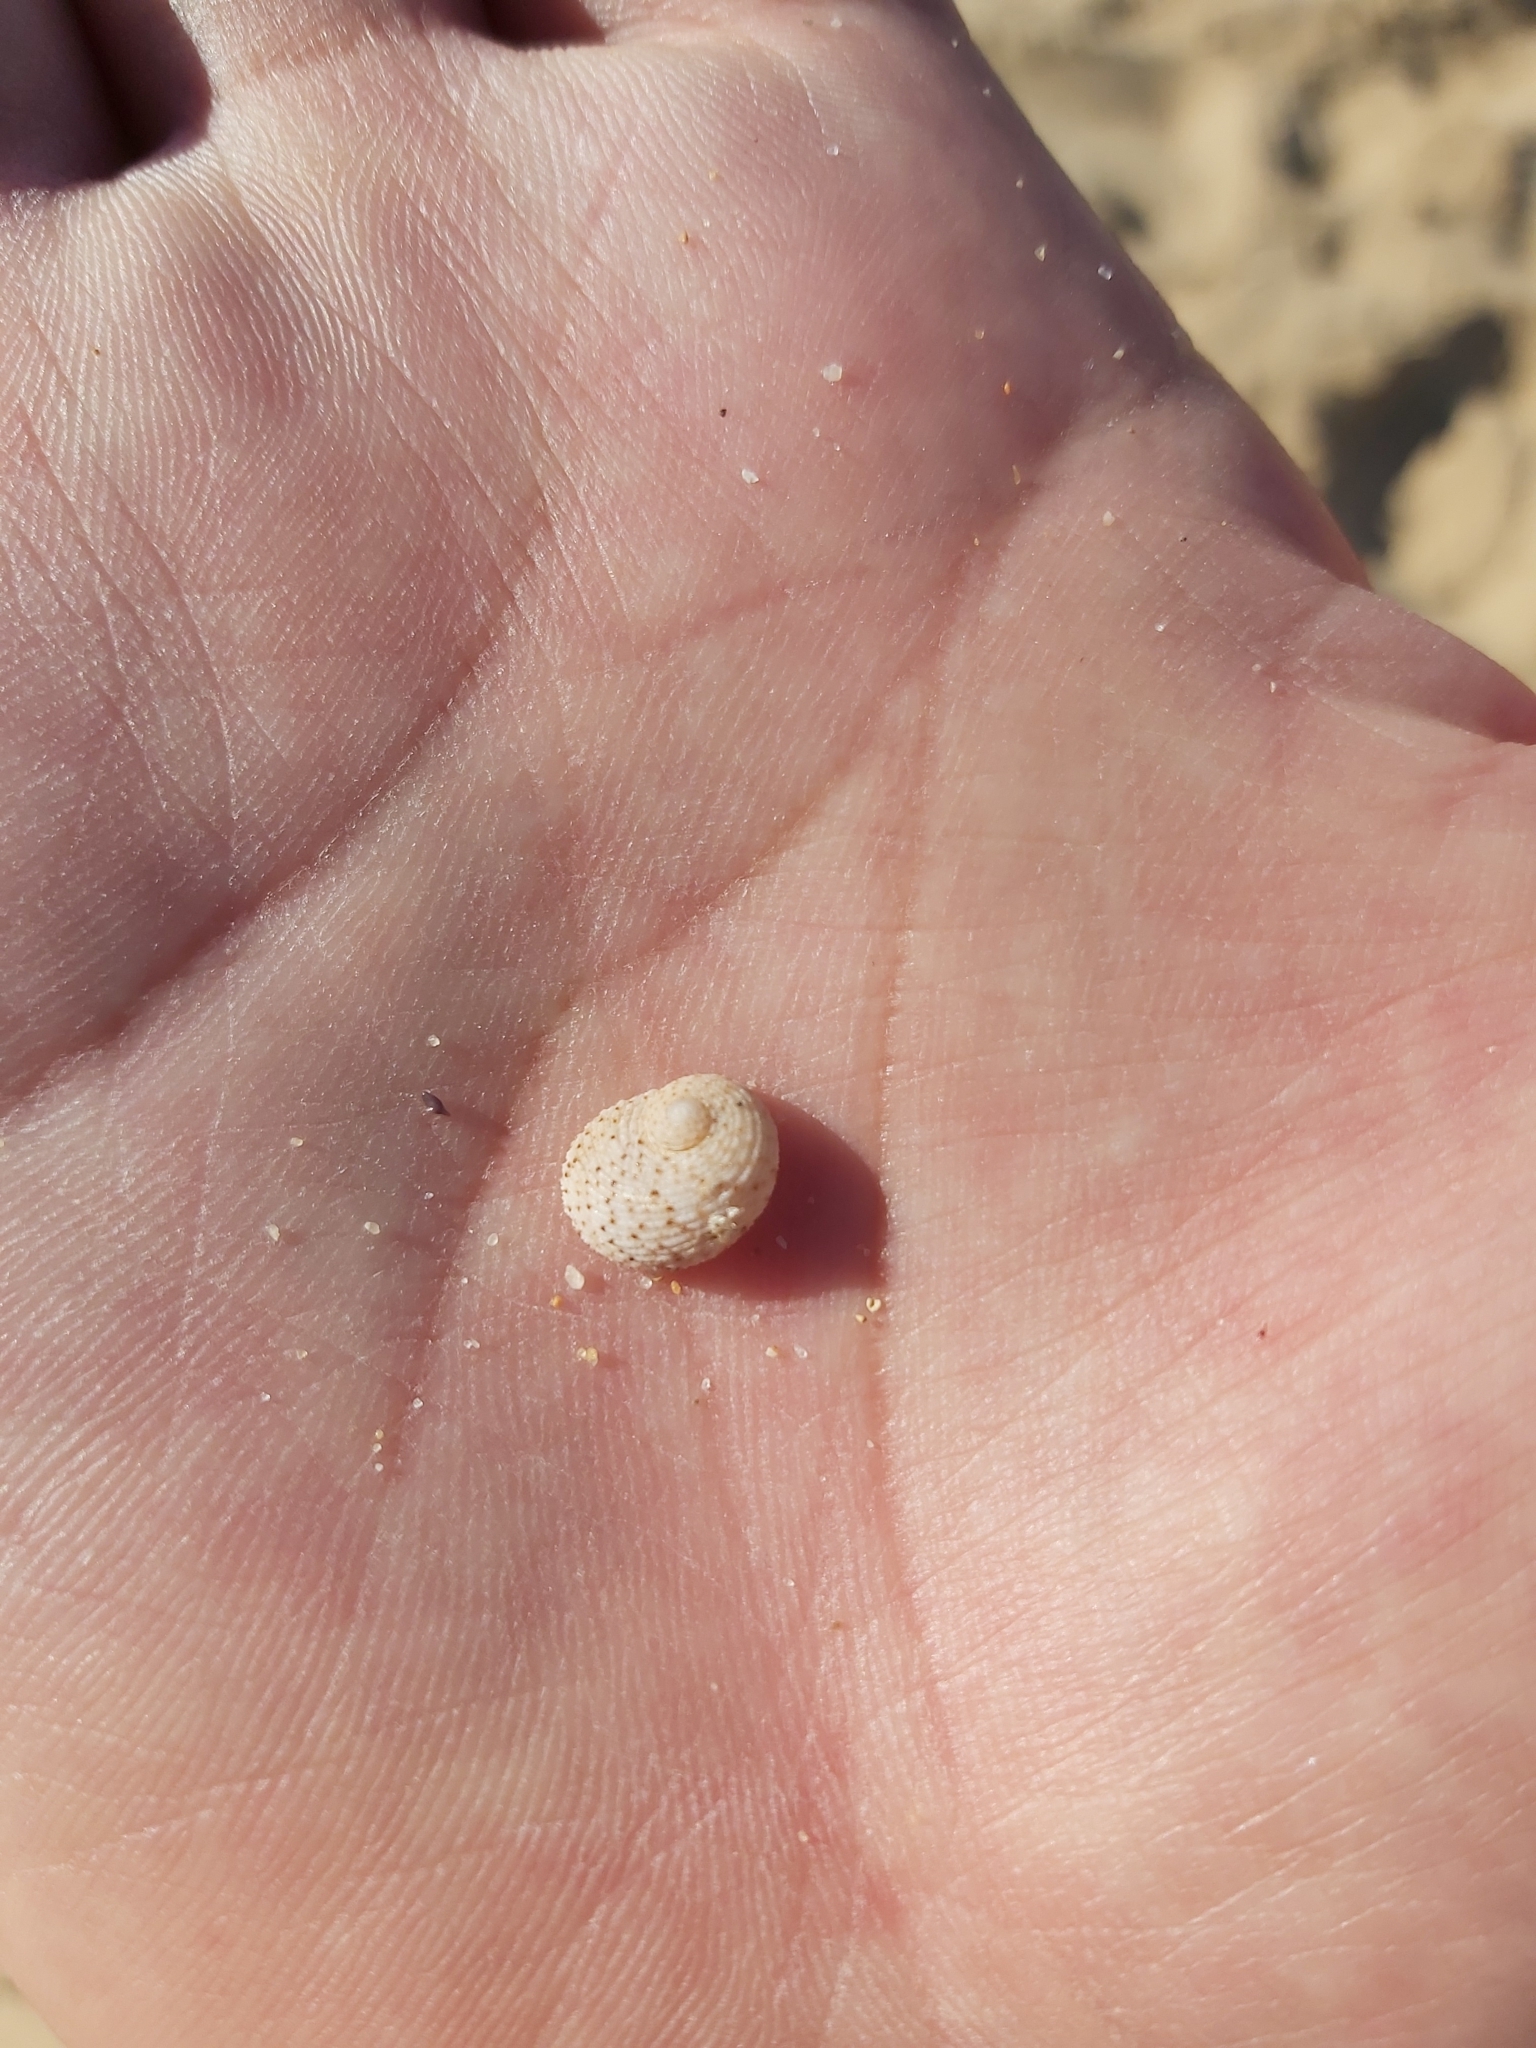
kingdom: Animalia
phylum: Mollusca
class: Gastropoda
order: Seguenziida
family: Chilodontaidae
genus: Granata
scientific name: Granata imbricata
